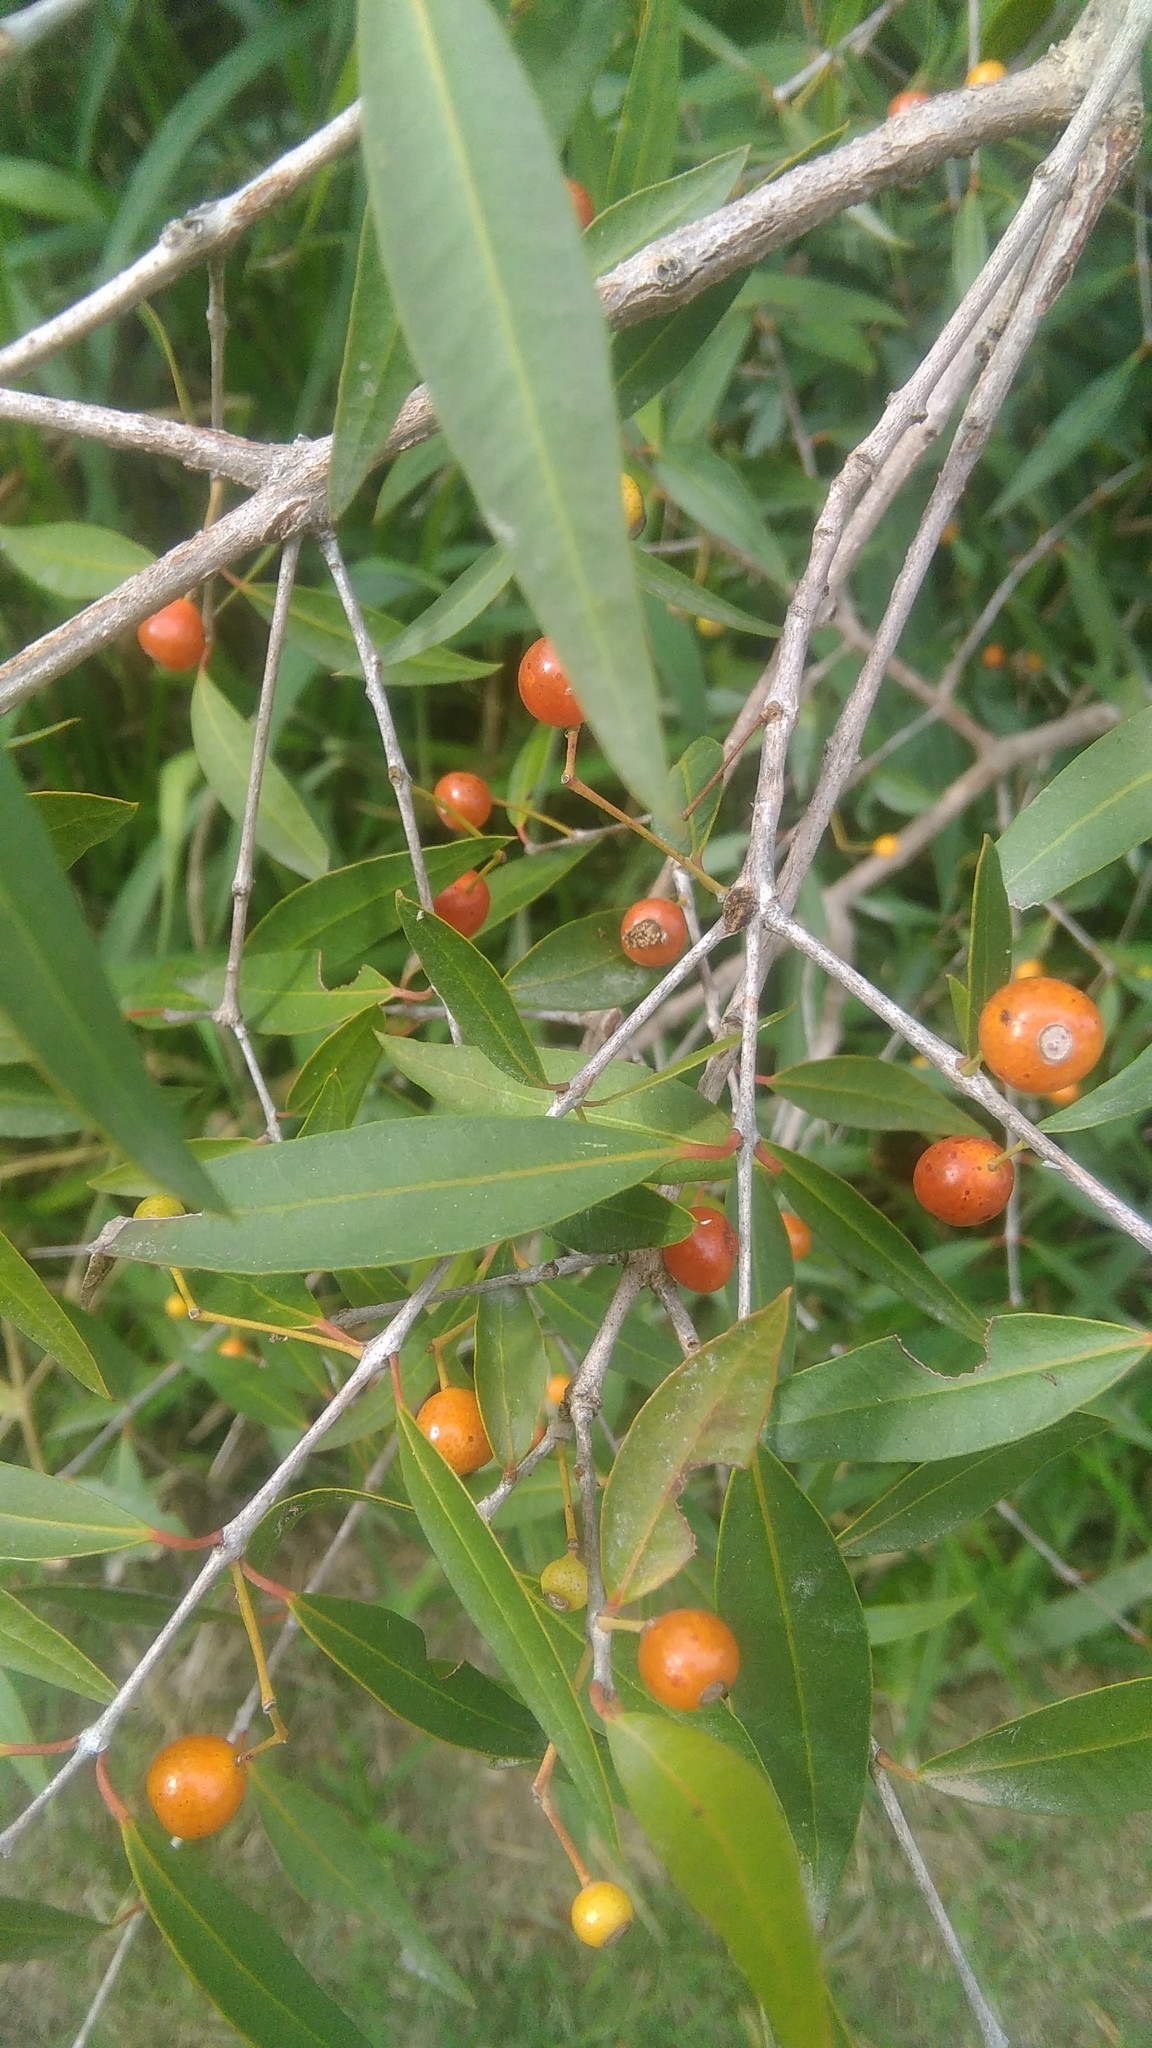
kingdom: Plantae
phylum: Tracheophyta
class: Magnoliopsida
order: Myrtales
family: Myrtaceae
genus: Blepharocalyx
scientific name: Blepharocalyx salicifolius
